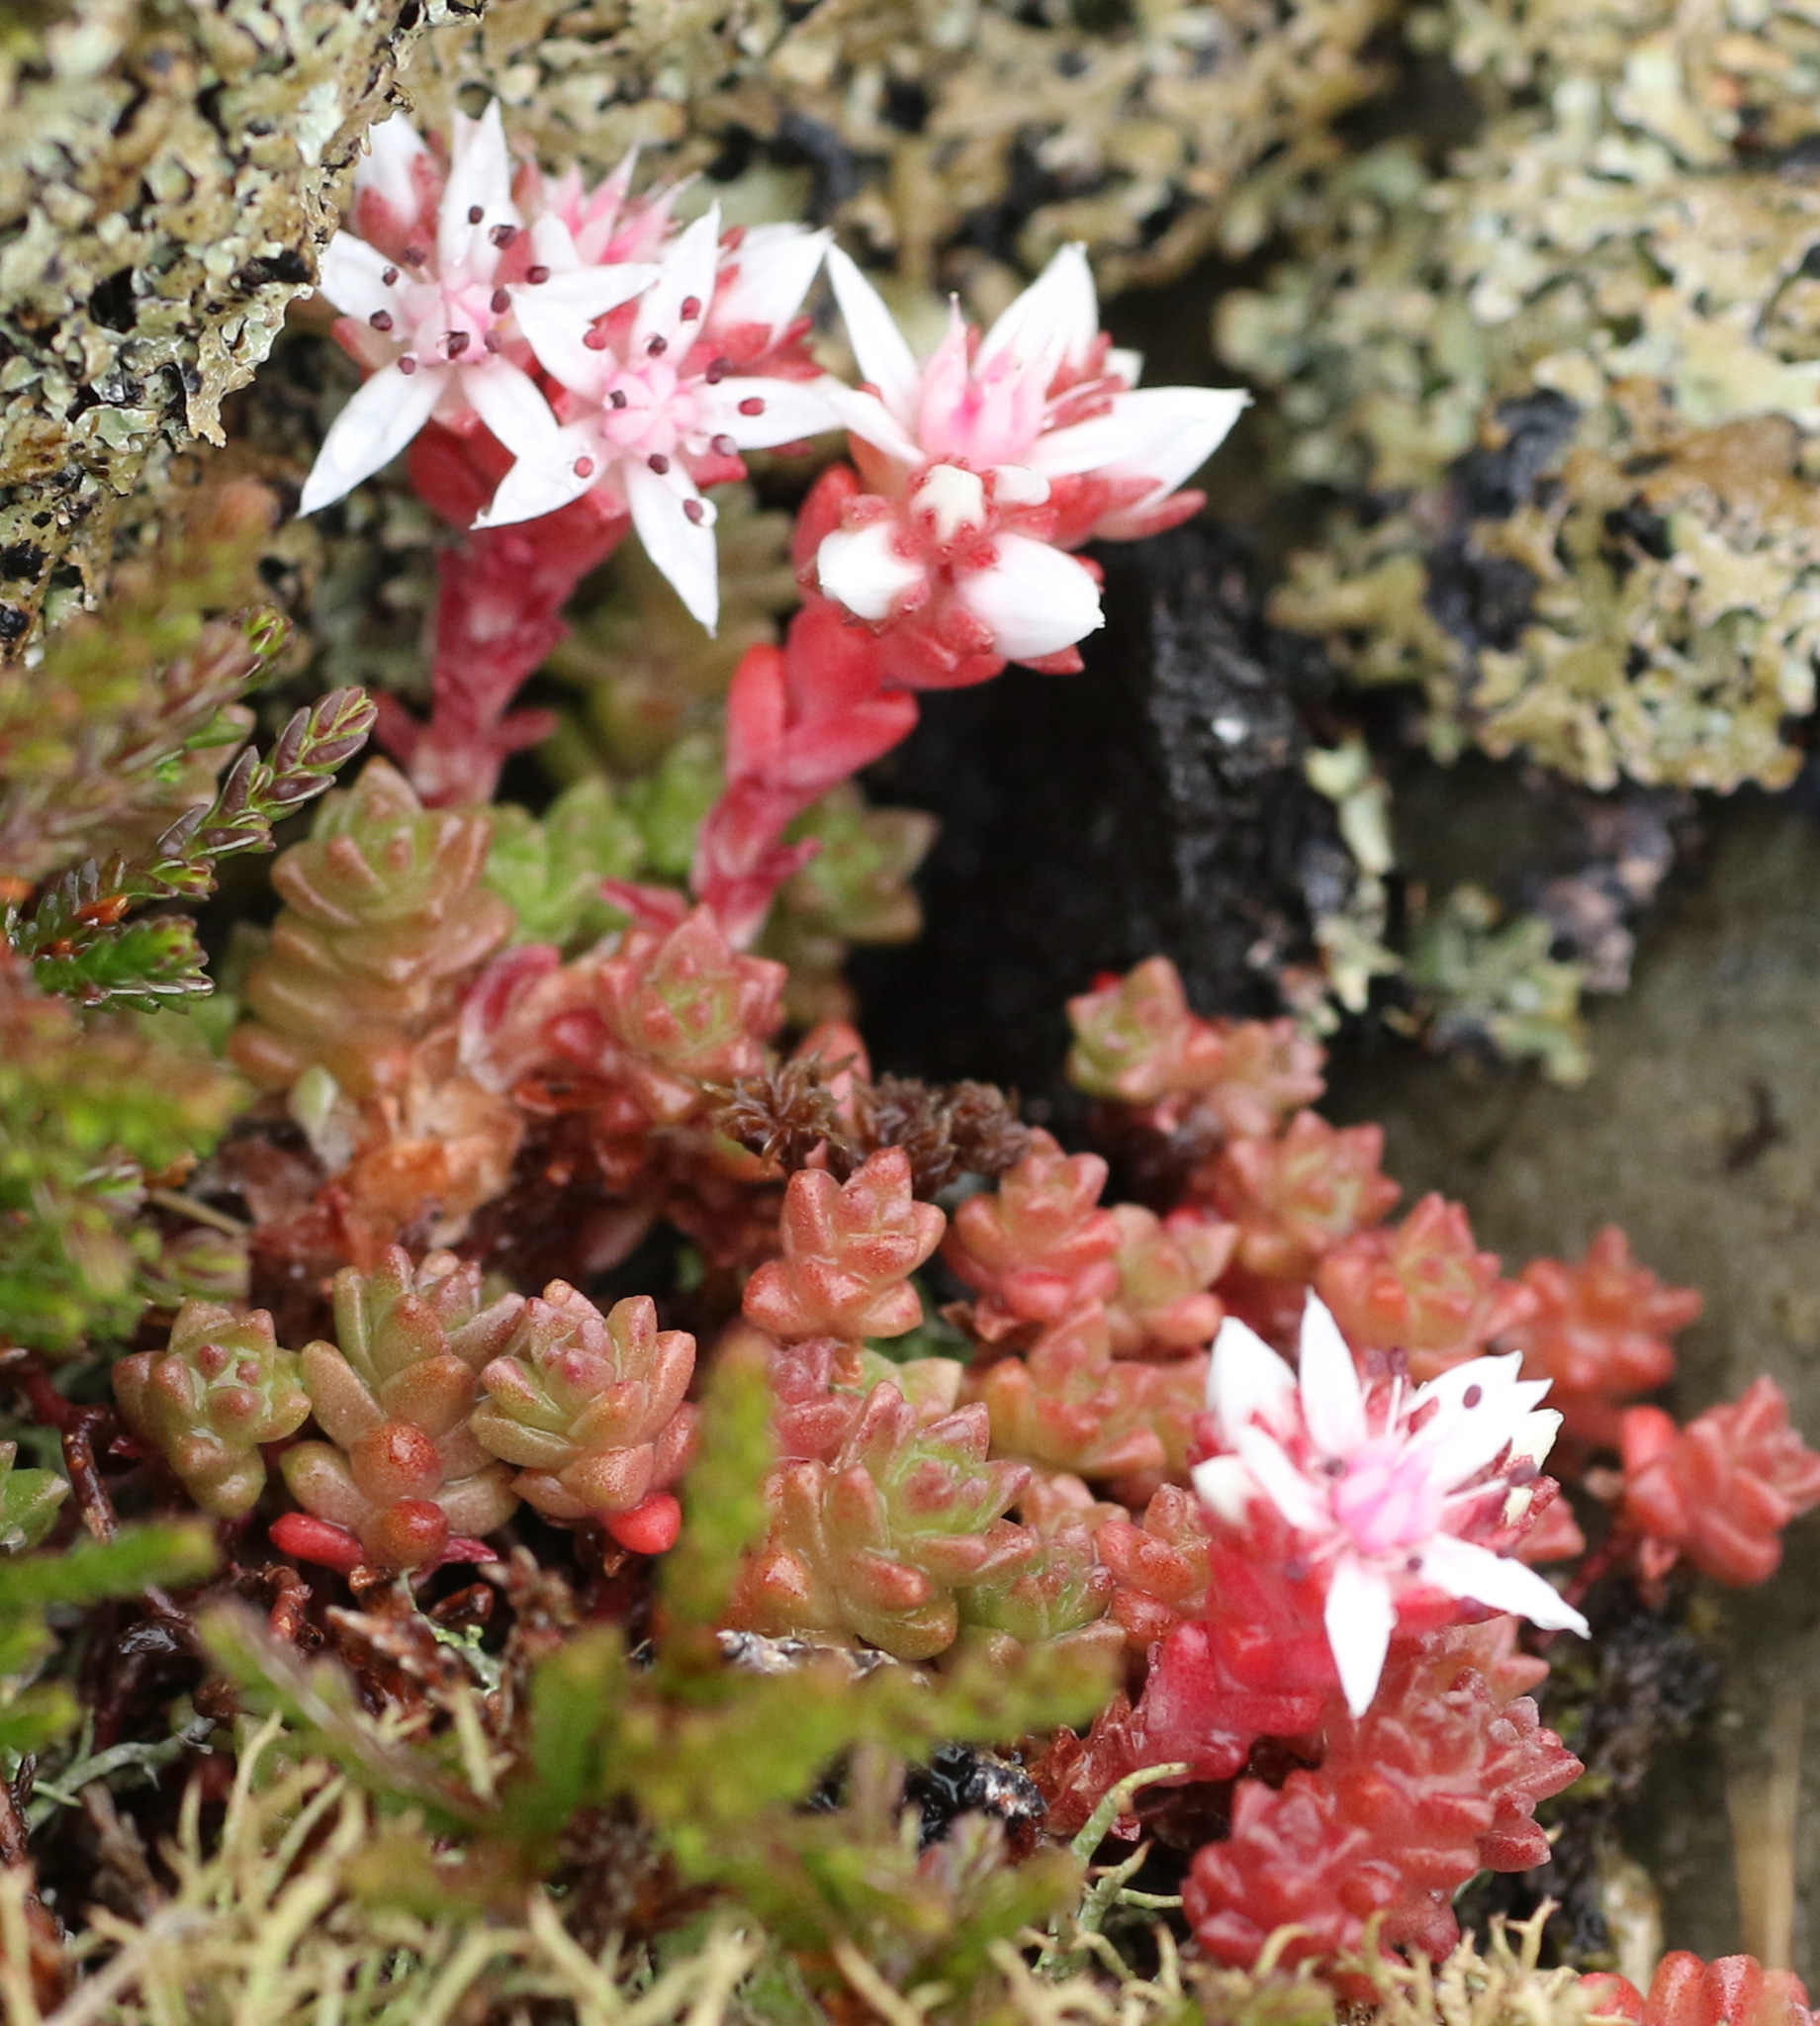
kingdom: Plantae
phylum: Tracheophyta
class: Magnoliopsida
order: Saxifragales
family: Crassulaceae
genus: Sedum
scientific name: Sedum anglicum
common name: English stonecrop
